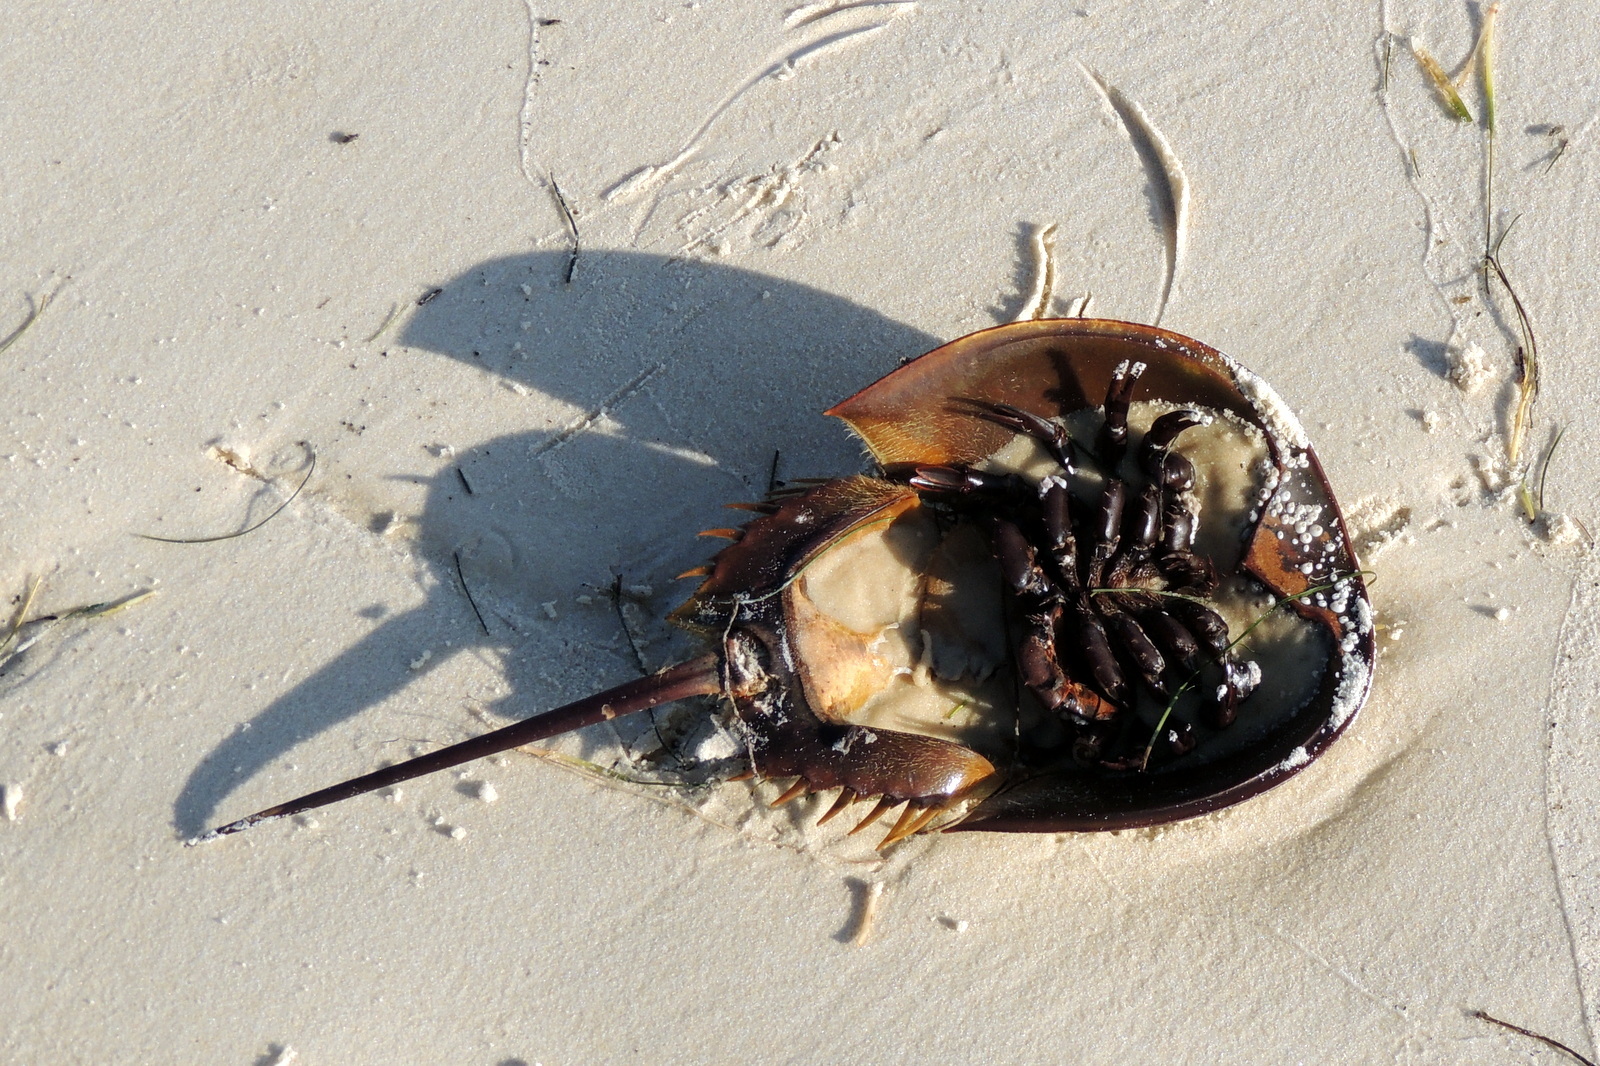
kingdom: Animalia
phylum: Arthropoda
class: Merostomata
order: Xiphosurida
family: Limulidae
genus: Limulus
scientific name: Limulus polyphemus
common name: Horseshoe crab
